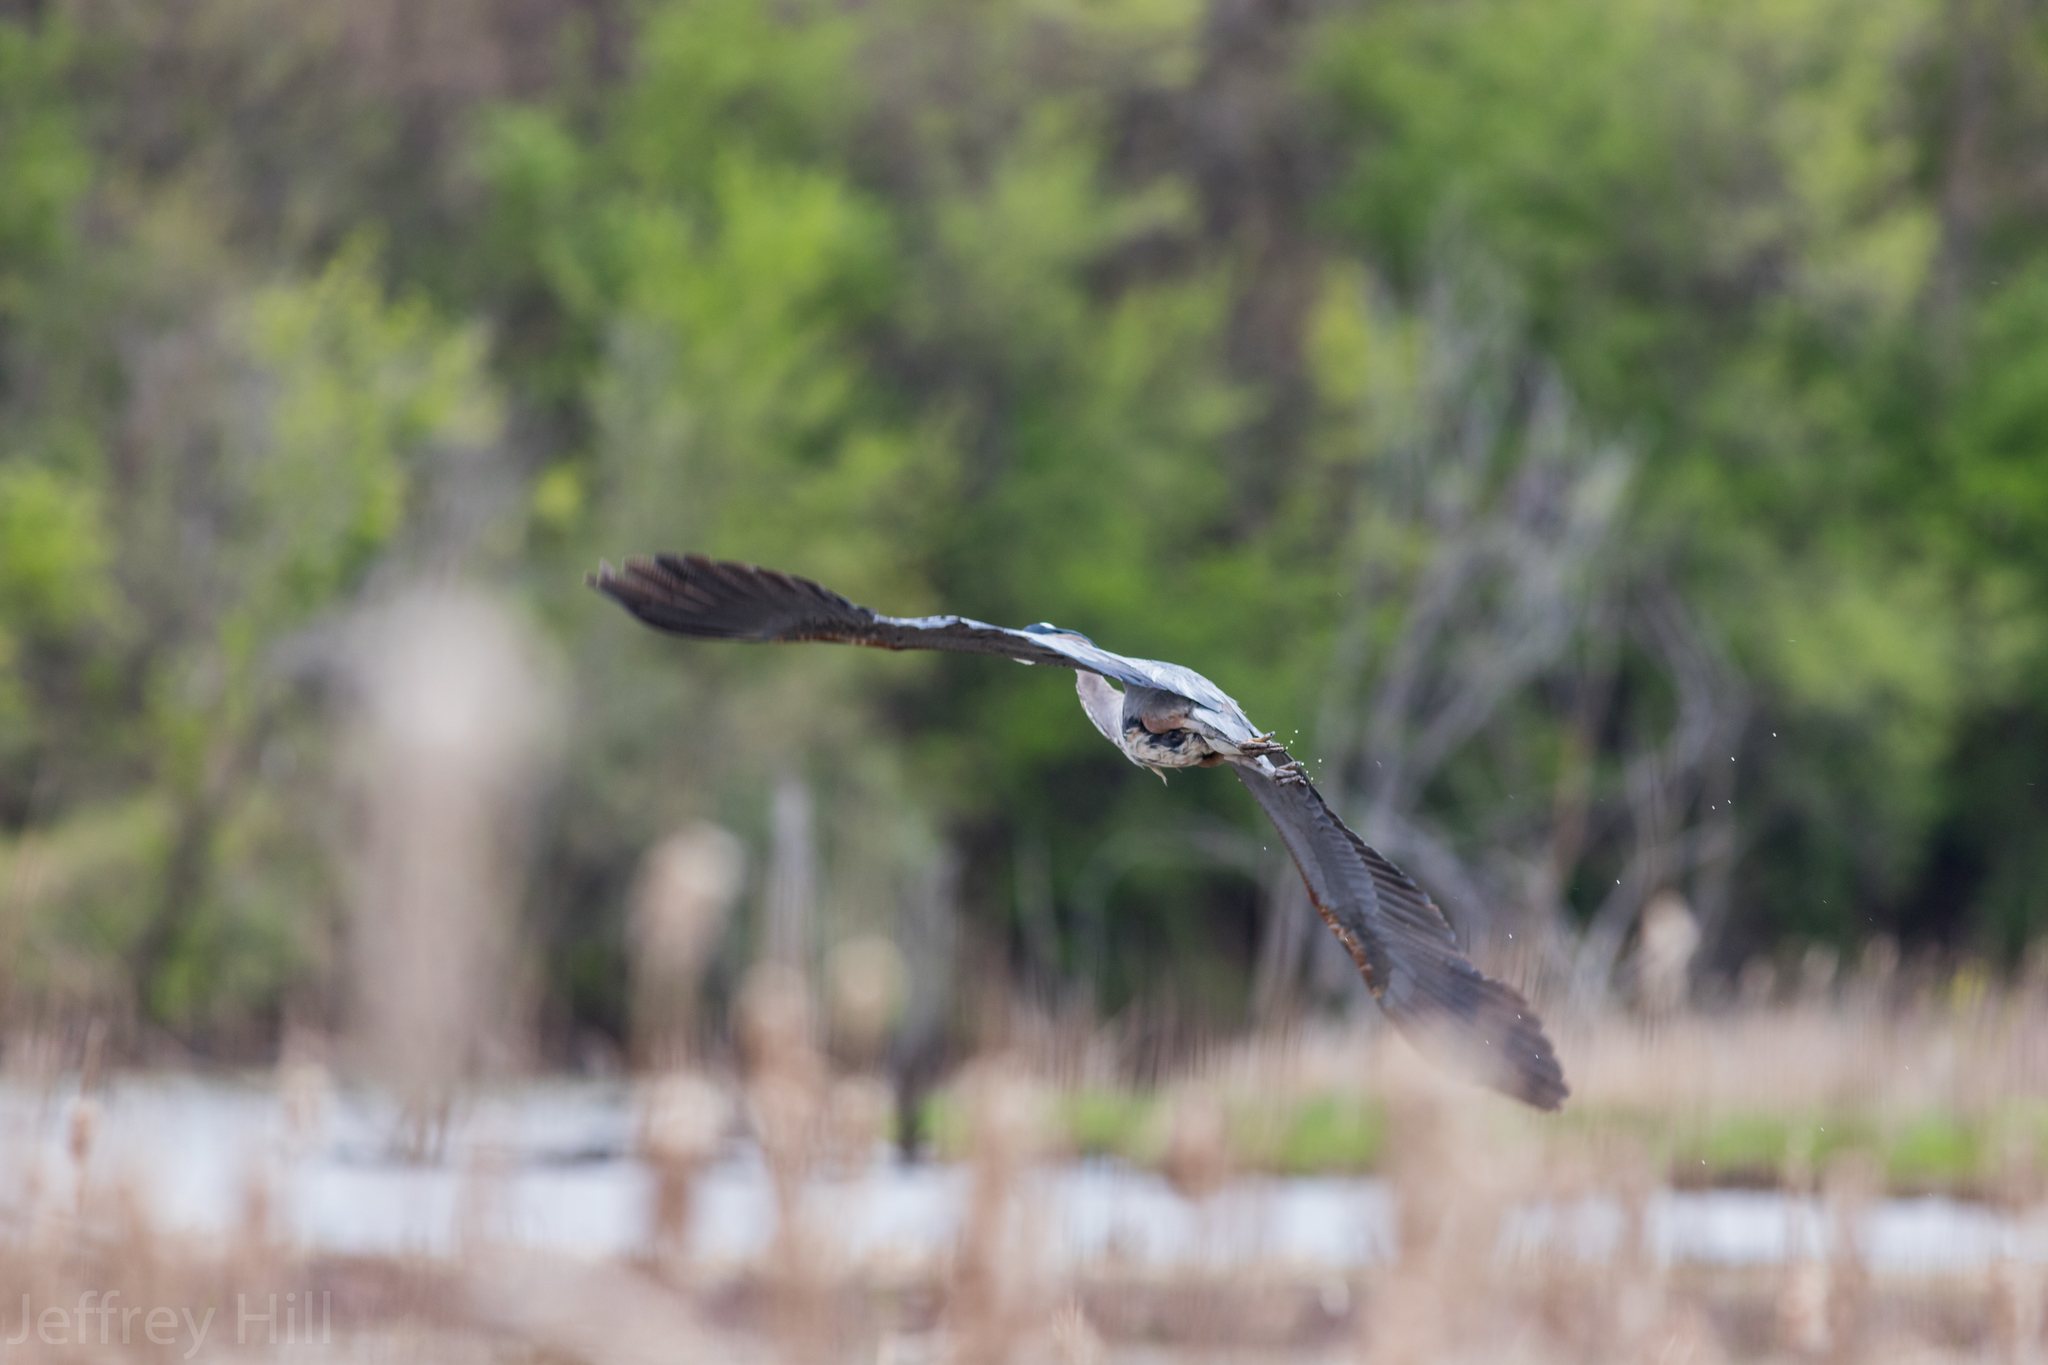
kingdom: Animalia
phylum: Chordata
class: Aves
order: Pelecaniformes
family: Ardeidae
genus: Ardea
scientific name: Ardea herodias
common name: Great blue heron
